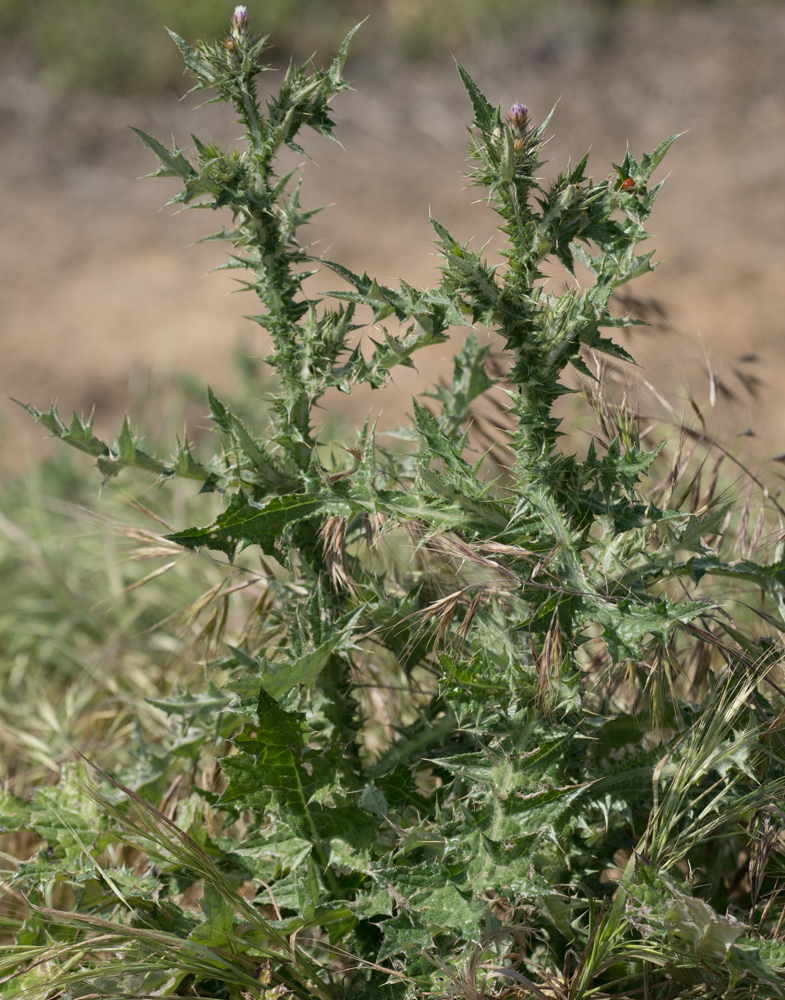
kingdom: Plantae
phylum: Tracheophyta
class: Magnoliopsida
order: Asterales
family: Asteraceae
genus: Carduus
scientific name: Carduus pycnocephalus
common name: Plymouth thistle
